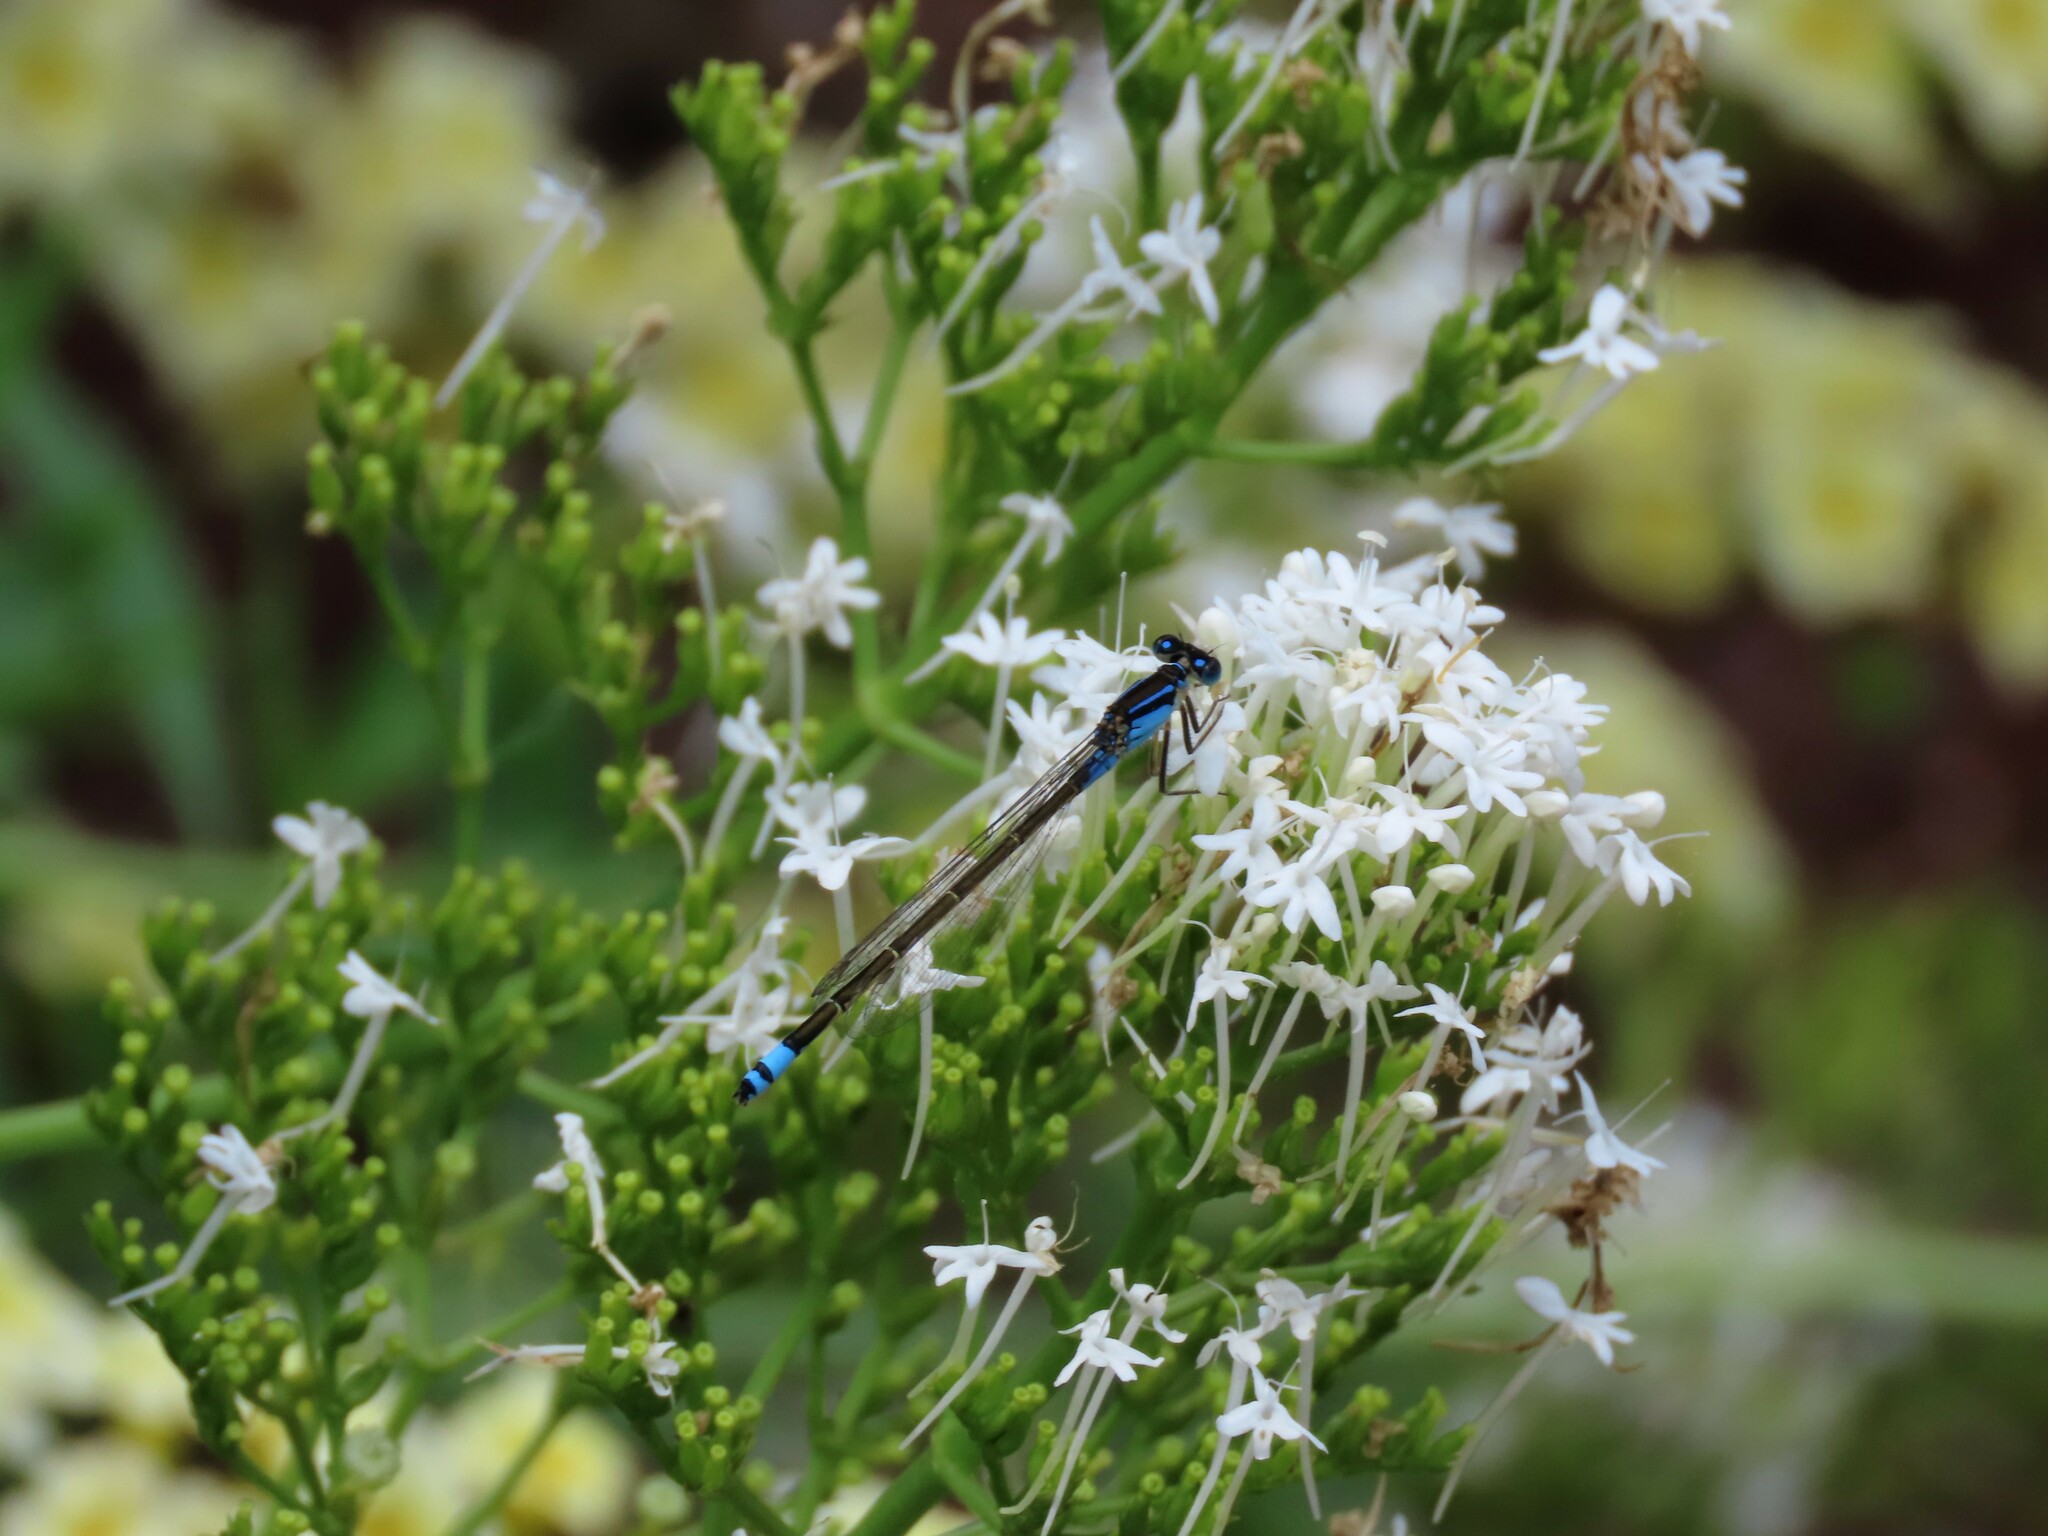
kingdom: Animalia
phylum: Arthropoda
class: Insecta
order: Odonata
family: Coenagrionidae
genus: Ischnura
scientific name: Ischnura heterosticta
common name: Common bluetail
